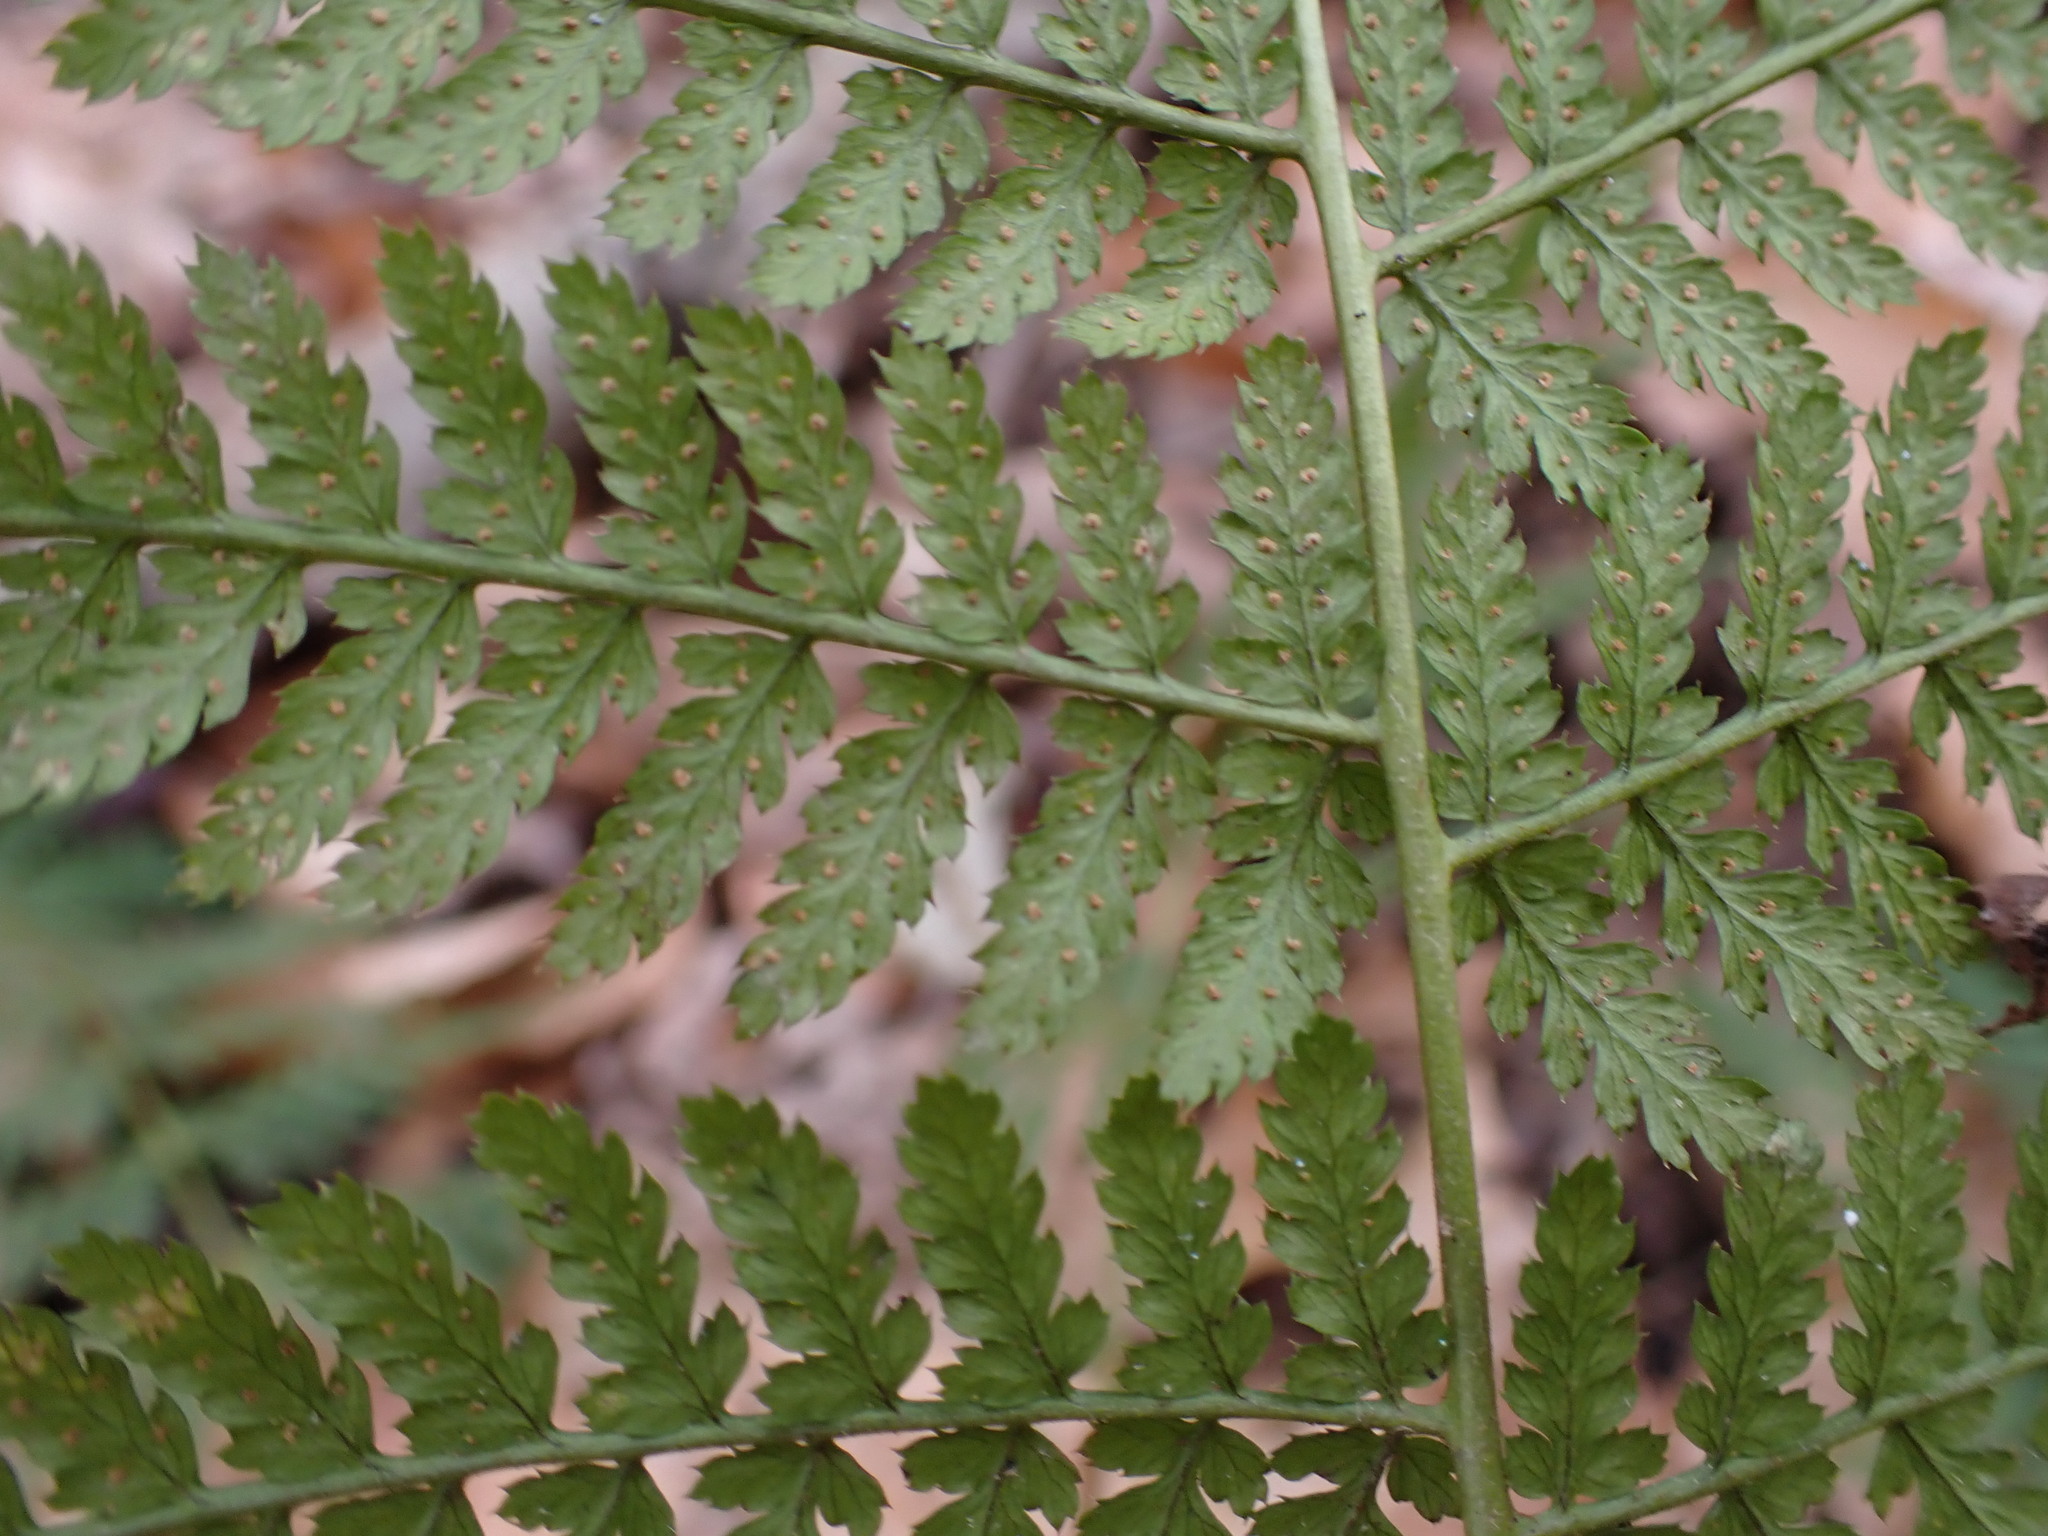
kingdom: Plantae
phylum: Tracheophyta
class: Polypodiopsida
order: Polypodiales
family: Dryopteridaceae
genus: Dryopteris
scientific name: Dryopteris intermedia
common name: Evergreen wood fern
